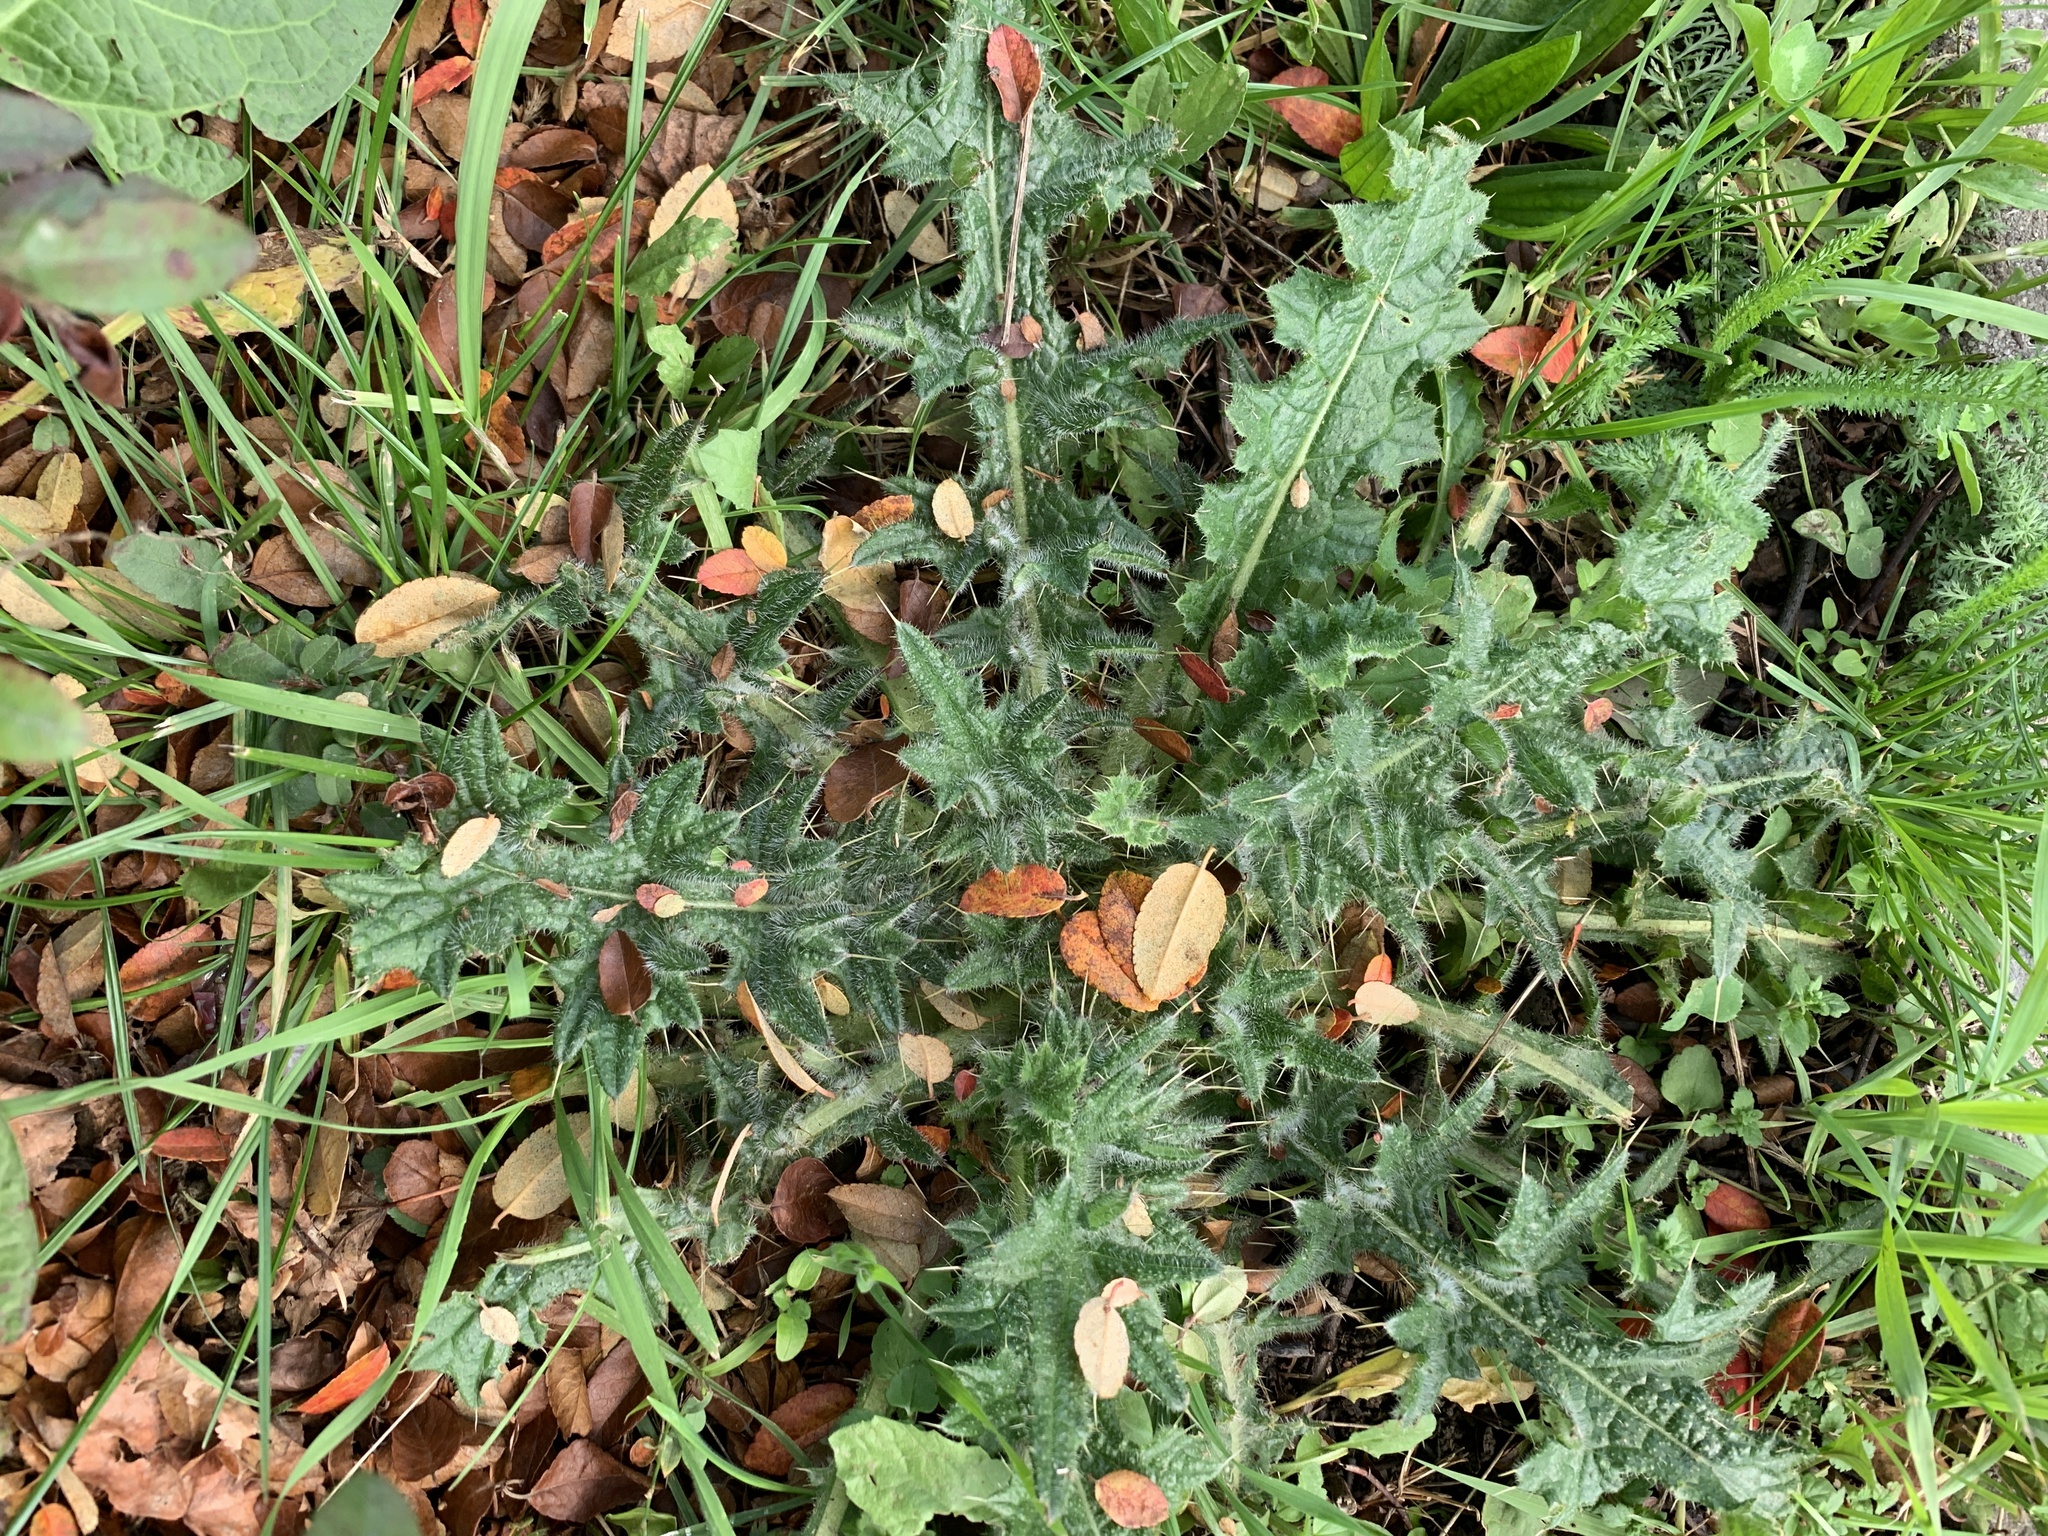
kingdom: Plantae
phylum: Tracheophyta
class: Magnoliopsida
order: Asterales
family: Asteraceae
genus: Cirsium
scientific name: Cirsium vulgare
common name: Bull thistle
